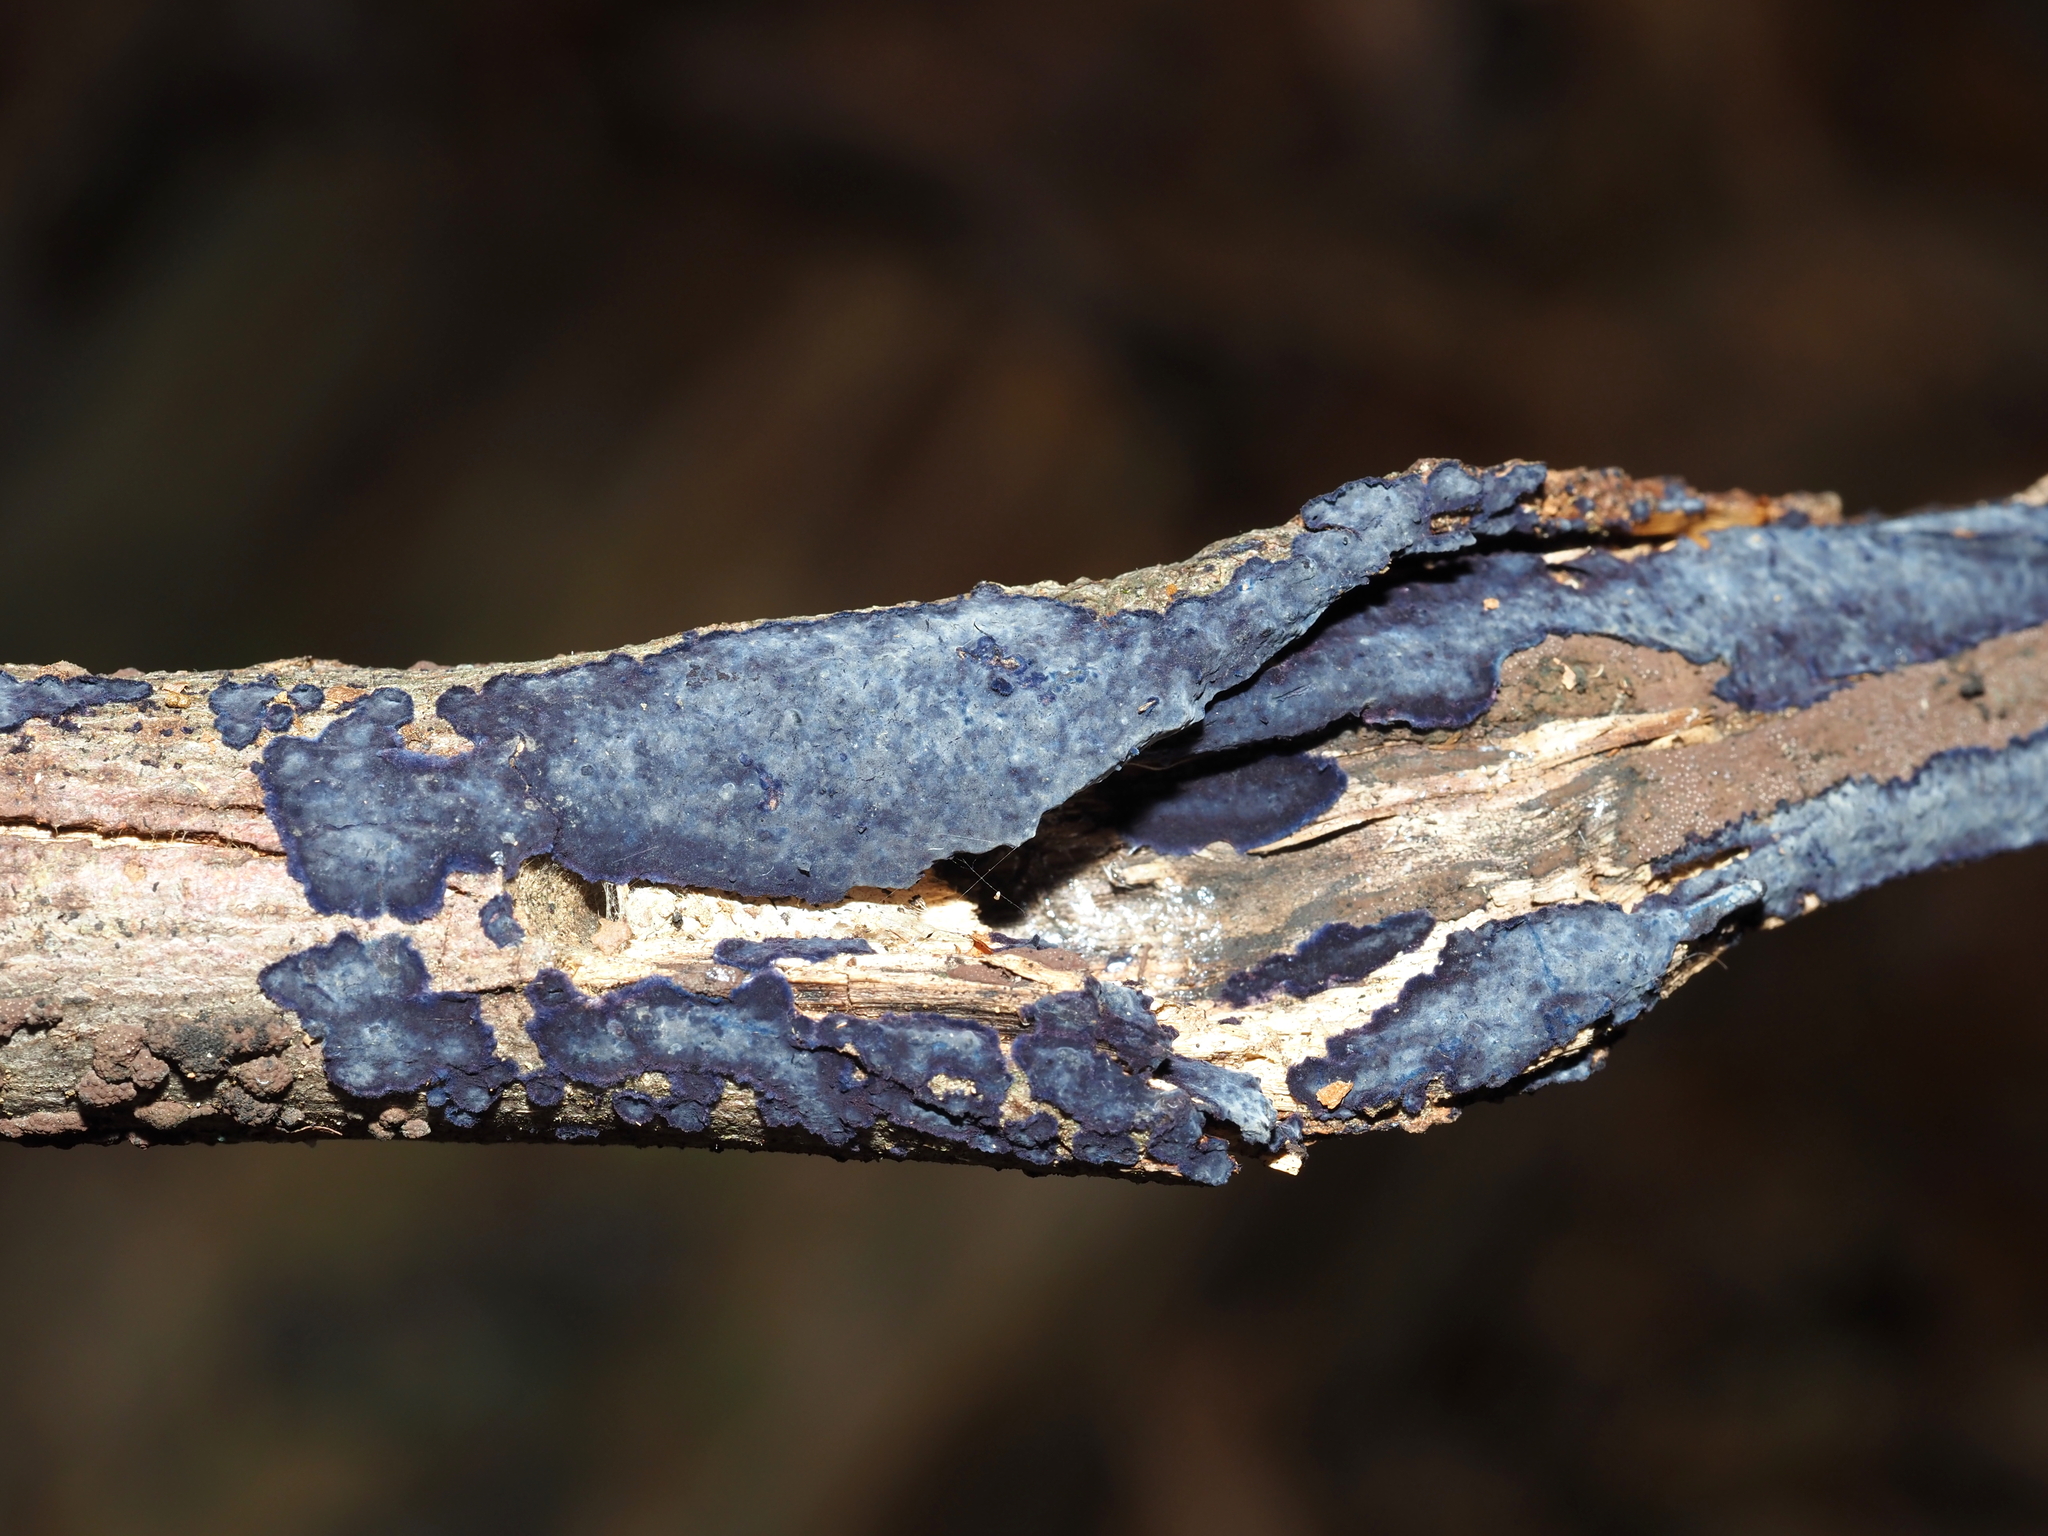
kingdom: Fungi
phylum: Basidiomycota
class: Agaricomycetes
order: Polyporales
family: Phanerochaetaceae
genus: Terana
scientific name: Terana coerulea
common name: Cobalt crust
